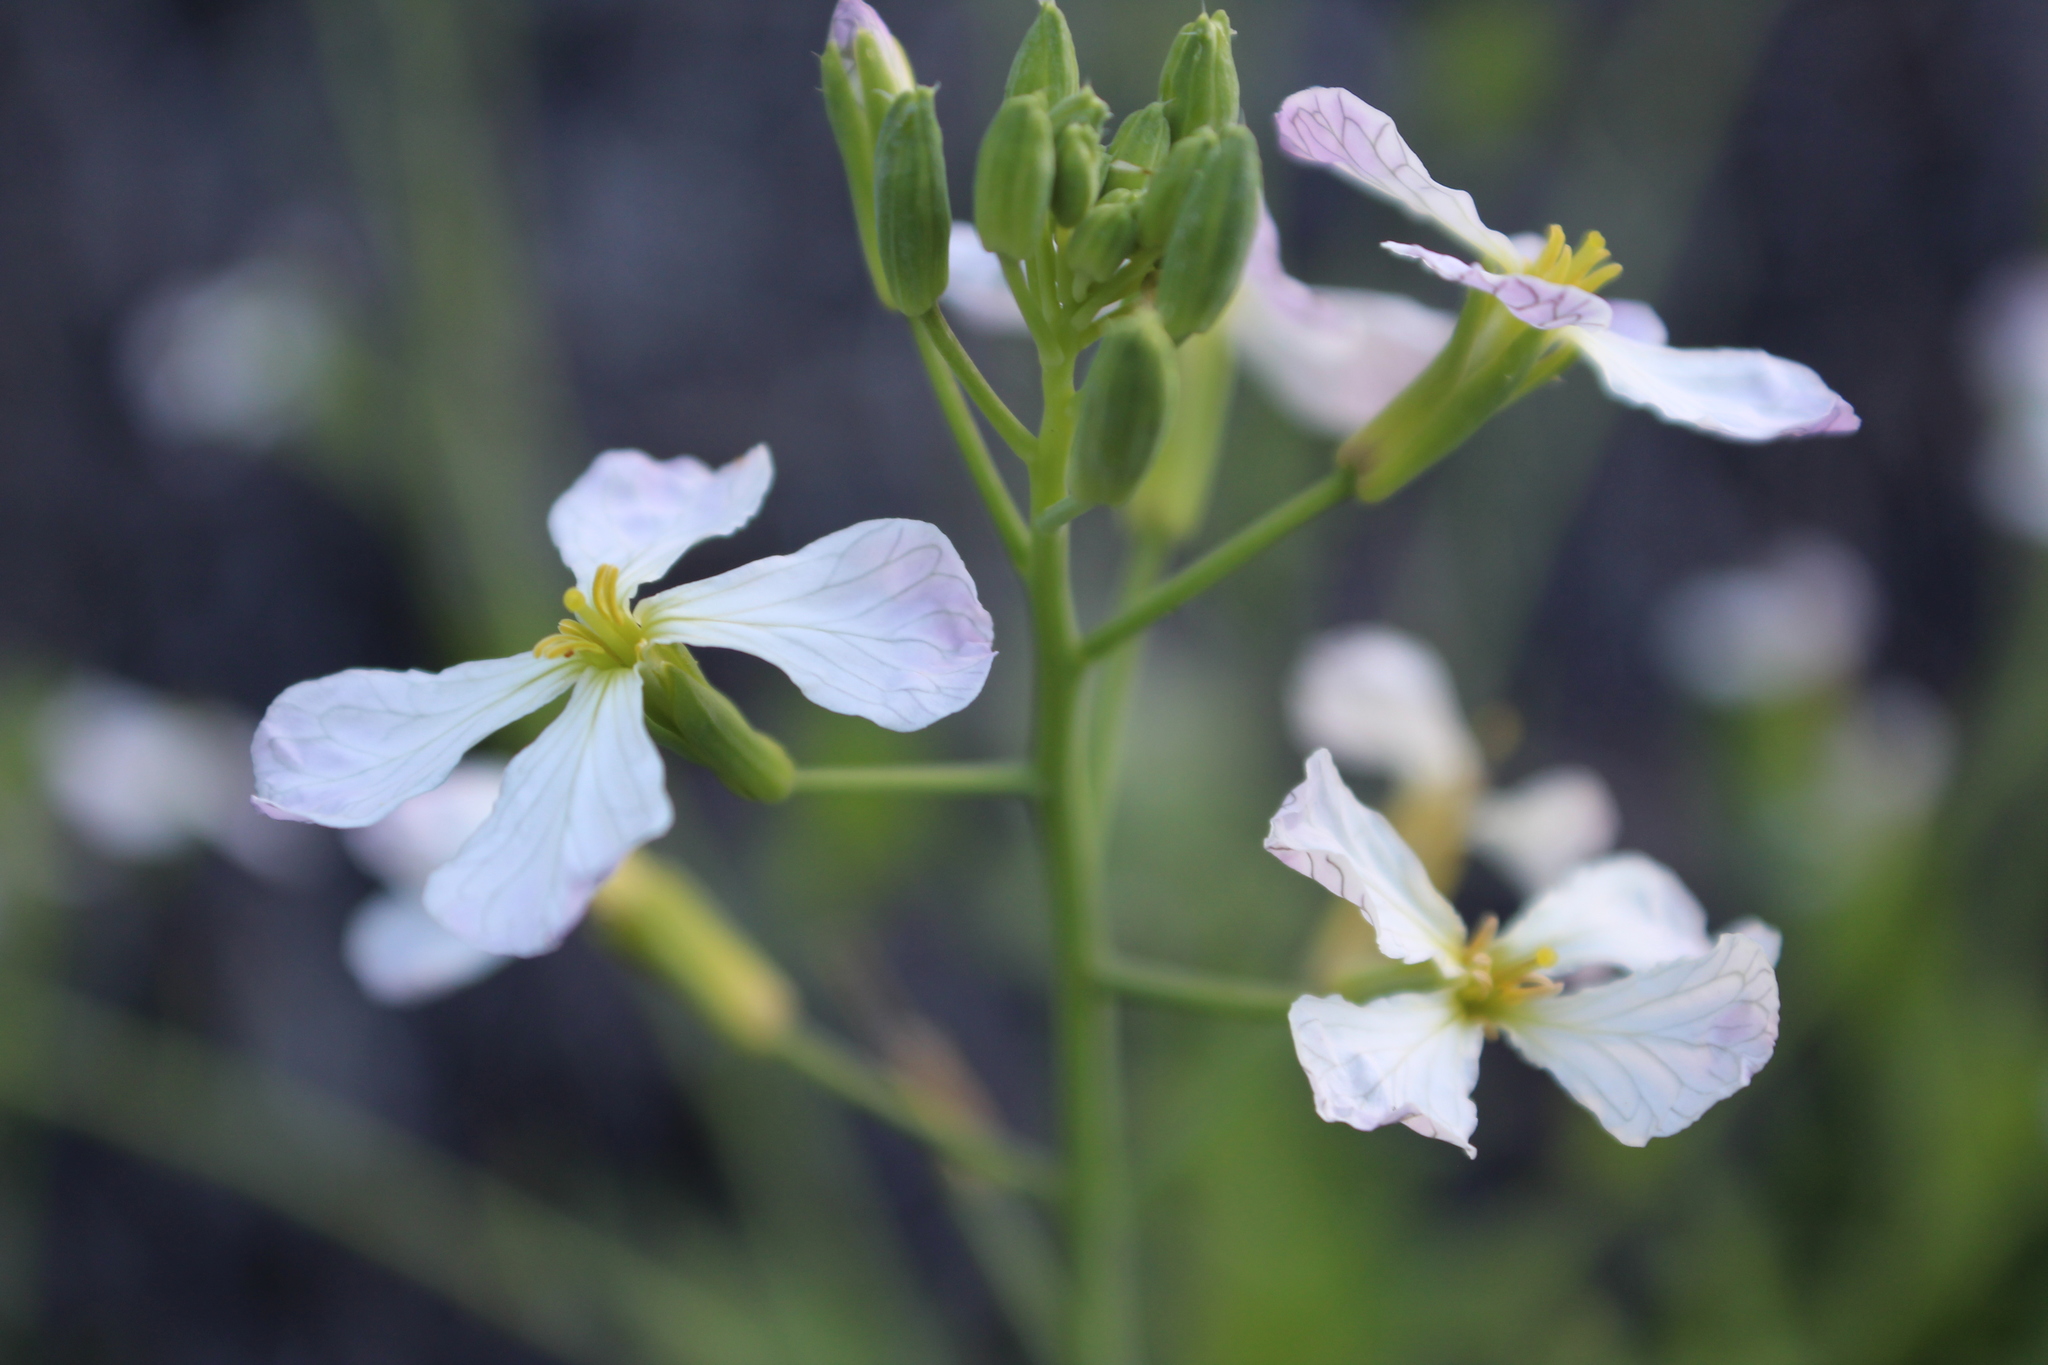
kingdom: Plantae
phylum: Tracheophyta
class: Magnoliopsida
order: Brassicales
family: Brassicaceae
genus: Raphanus
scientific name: Raphanus sativus
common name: Cultivated radish
